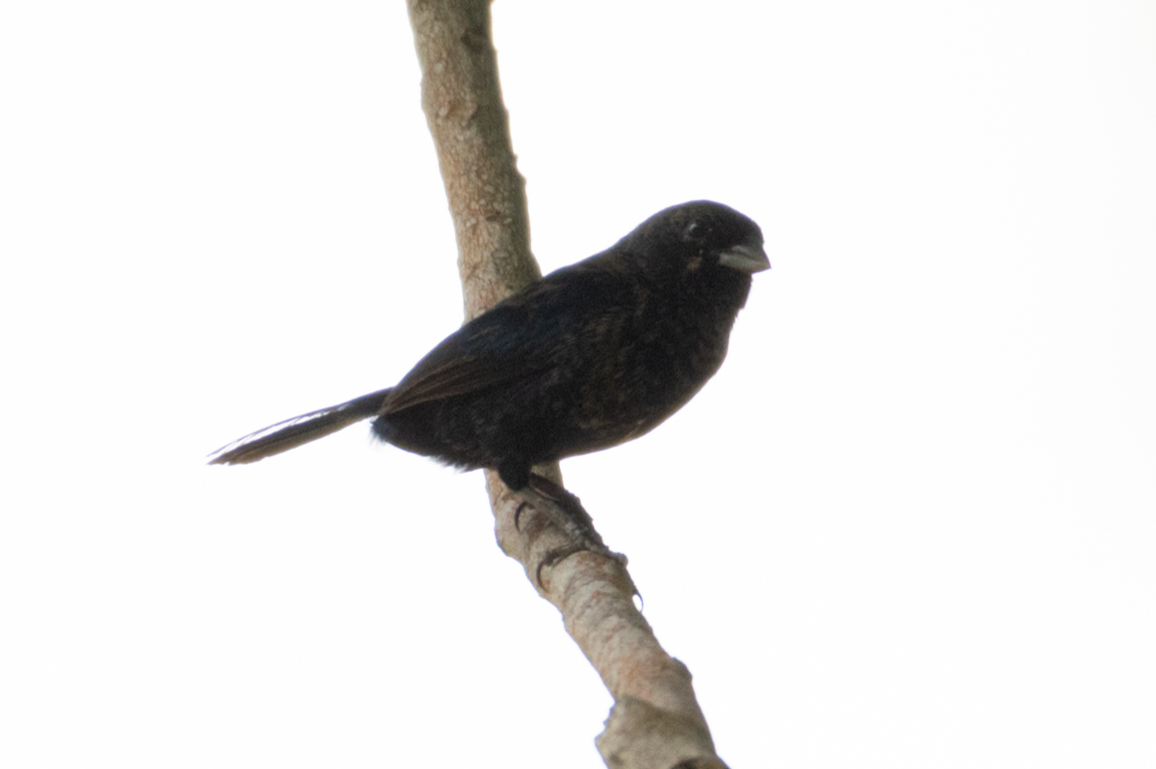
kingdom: Animalia
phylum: Chordata
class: Aves
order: Passeriformes
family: Thraupidae
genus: Volatinia
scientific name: Volatinia jacarina
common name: Blue-black grassquit
